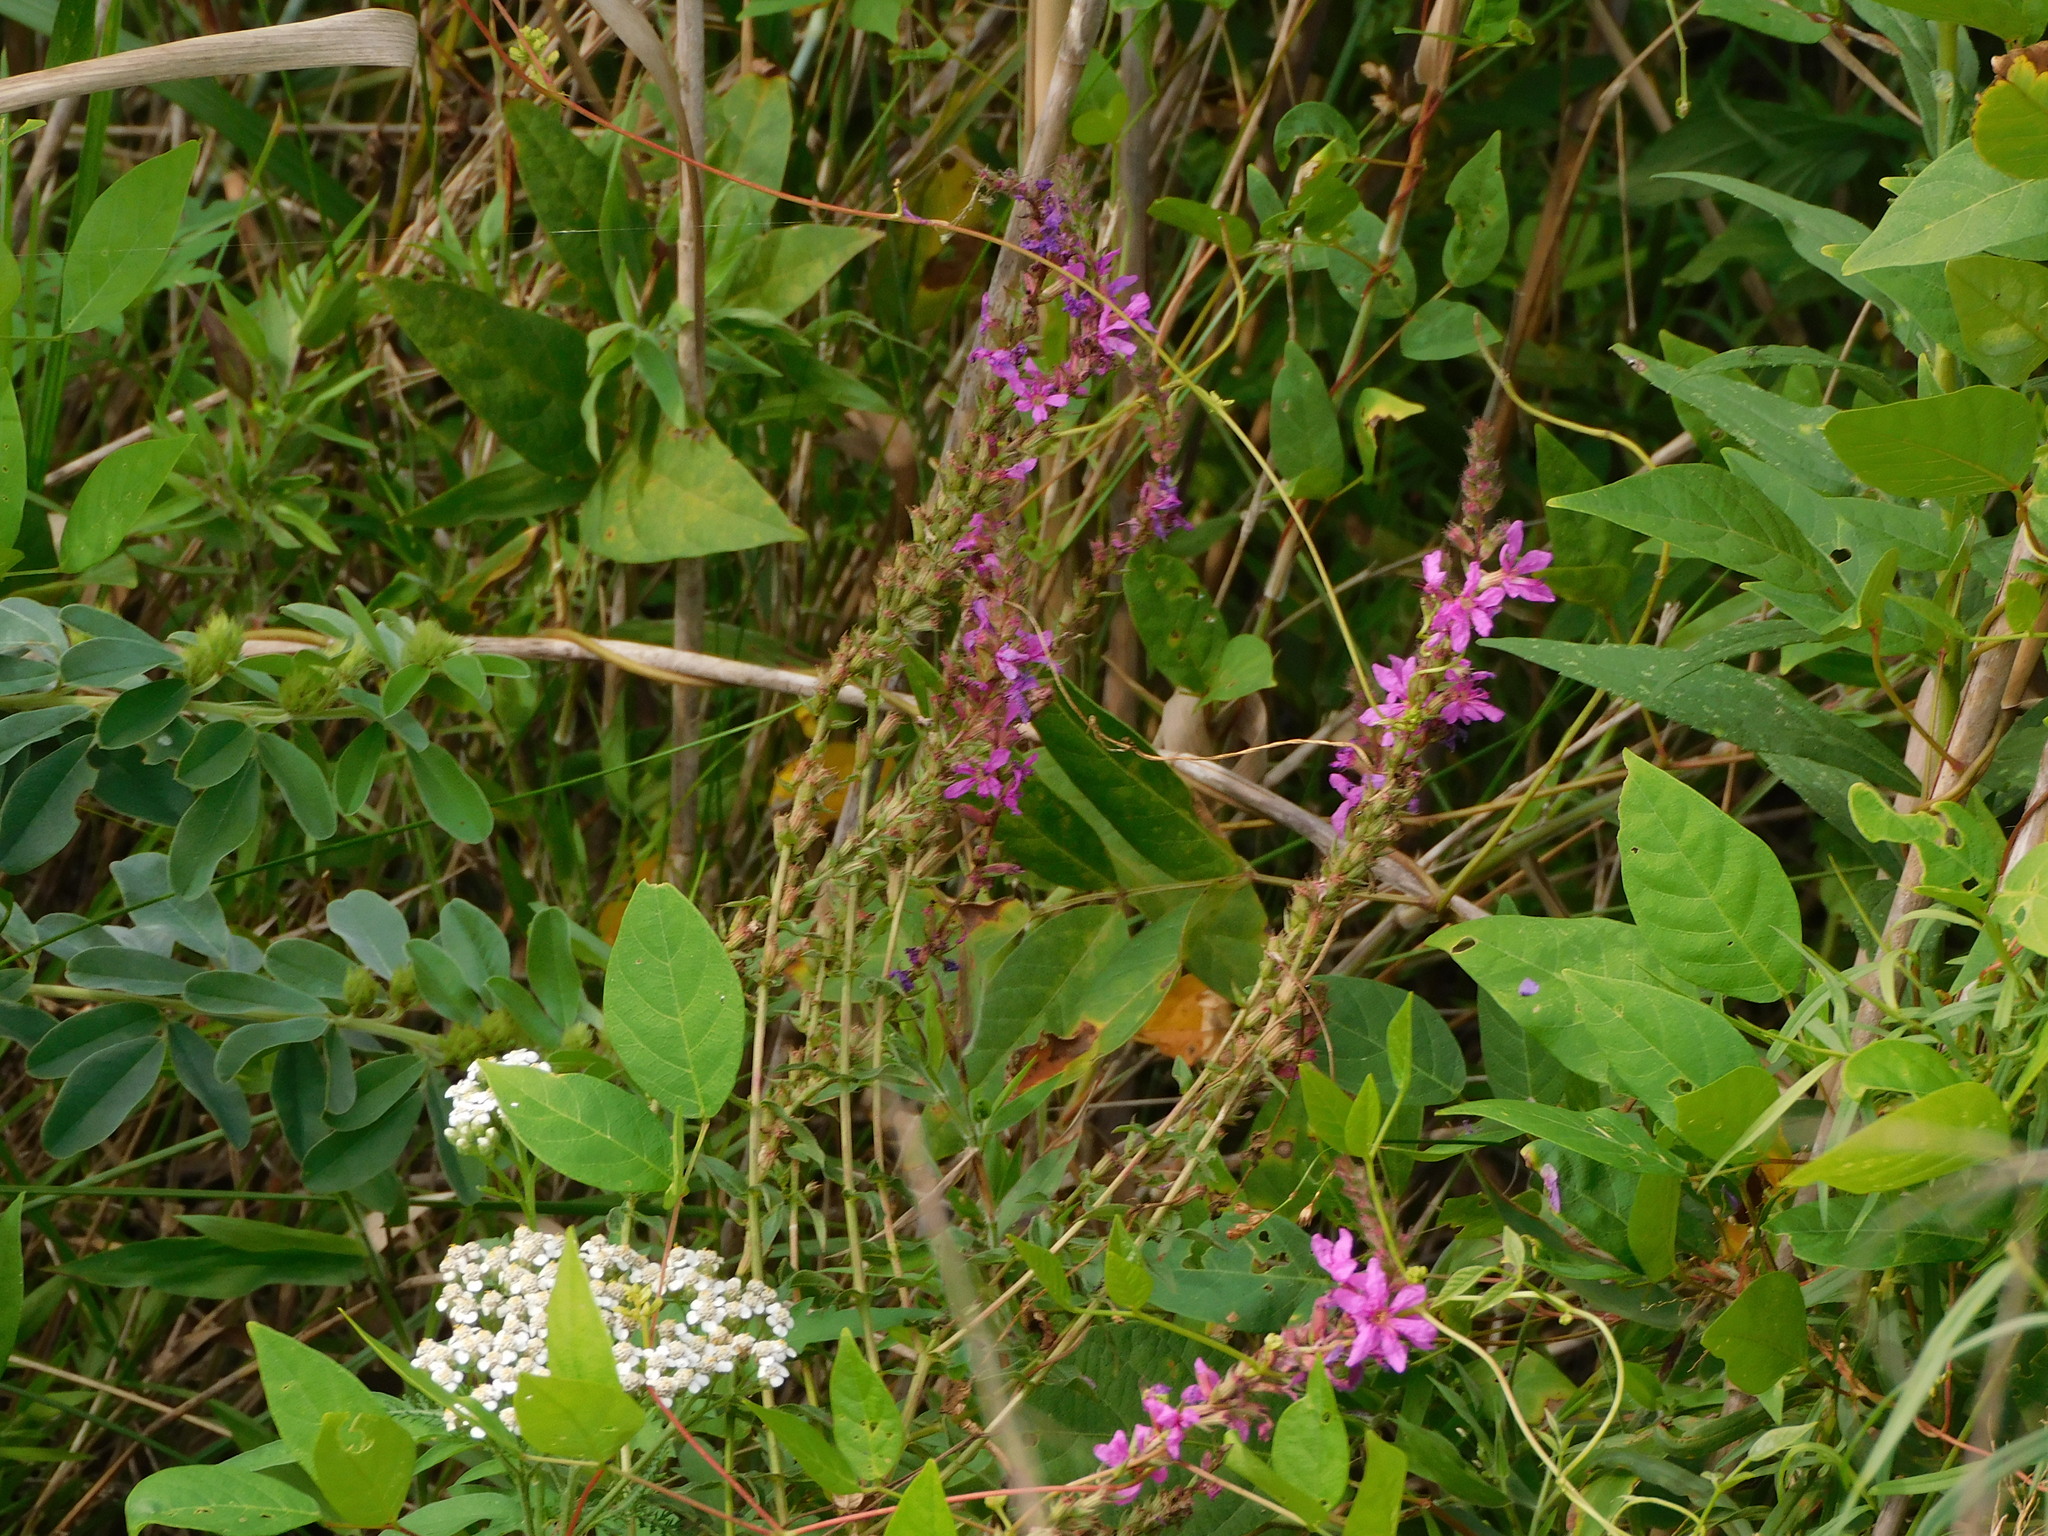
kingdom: Plantae
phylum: Tracheophyta
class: Magnoliopsida
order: Myrtales
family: Lythraceae
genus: Lythrum
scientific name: Lythrum salicaria
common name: Purple loosestrife
